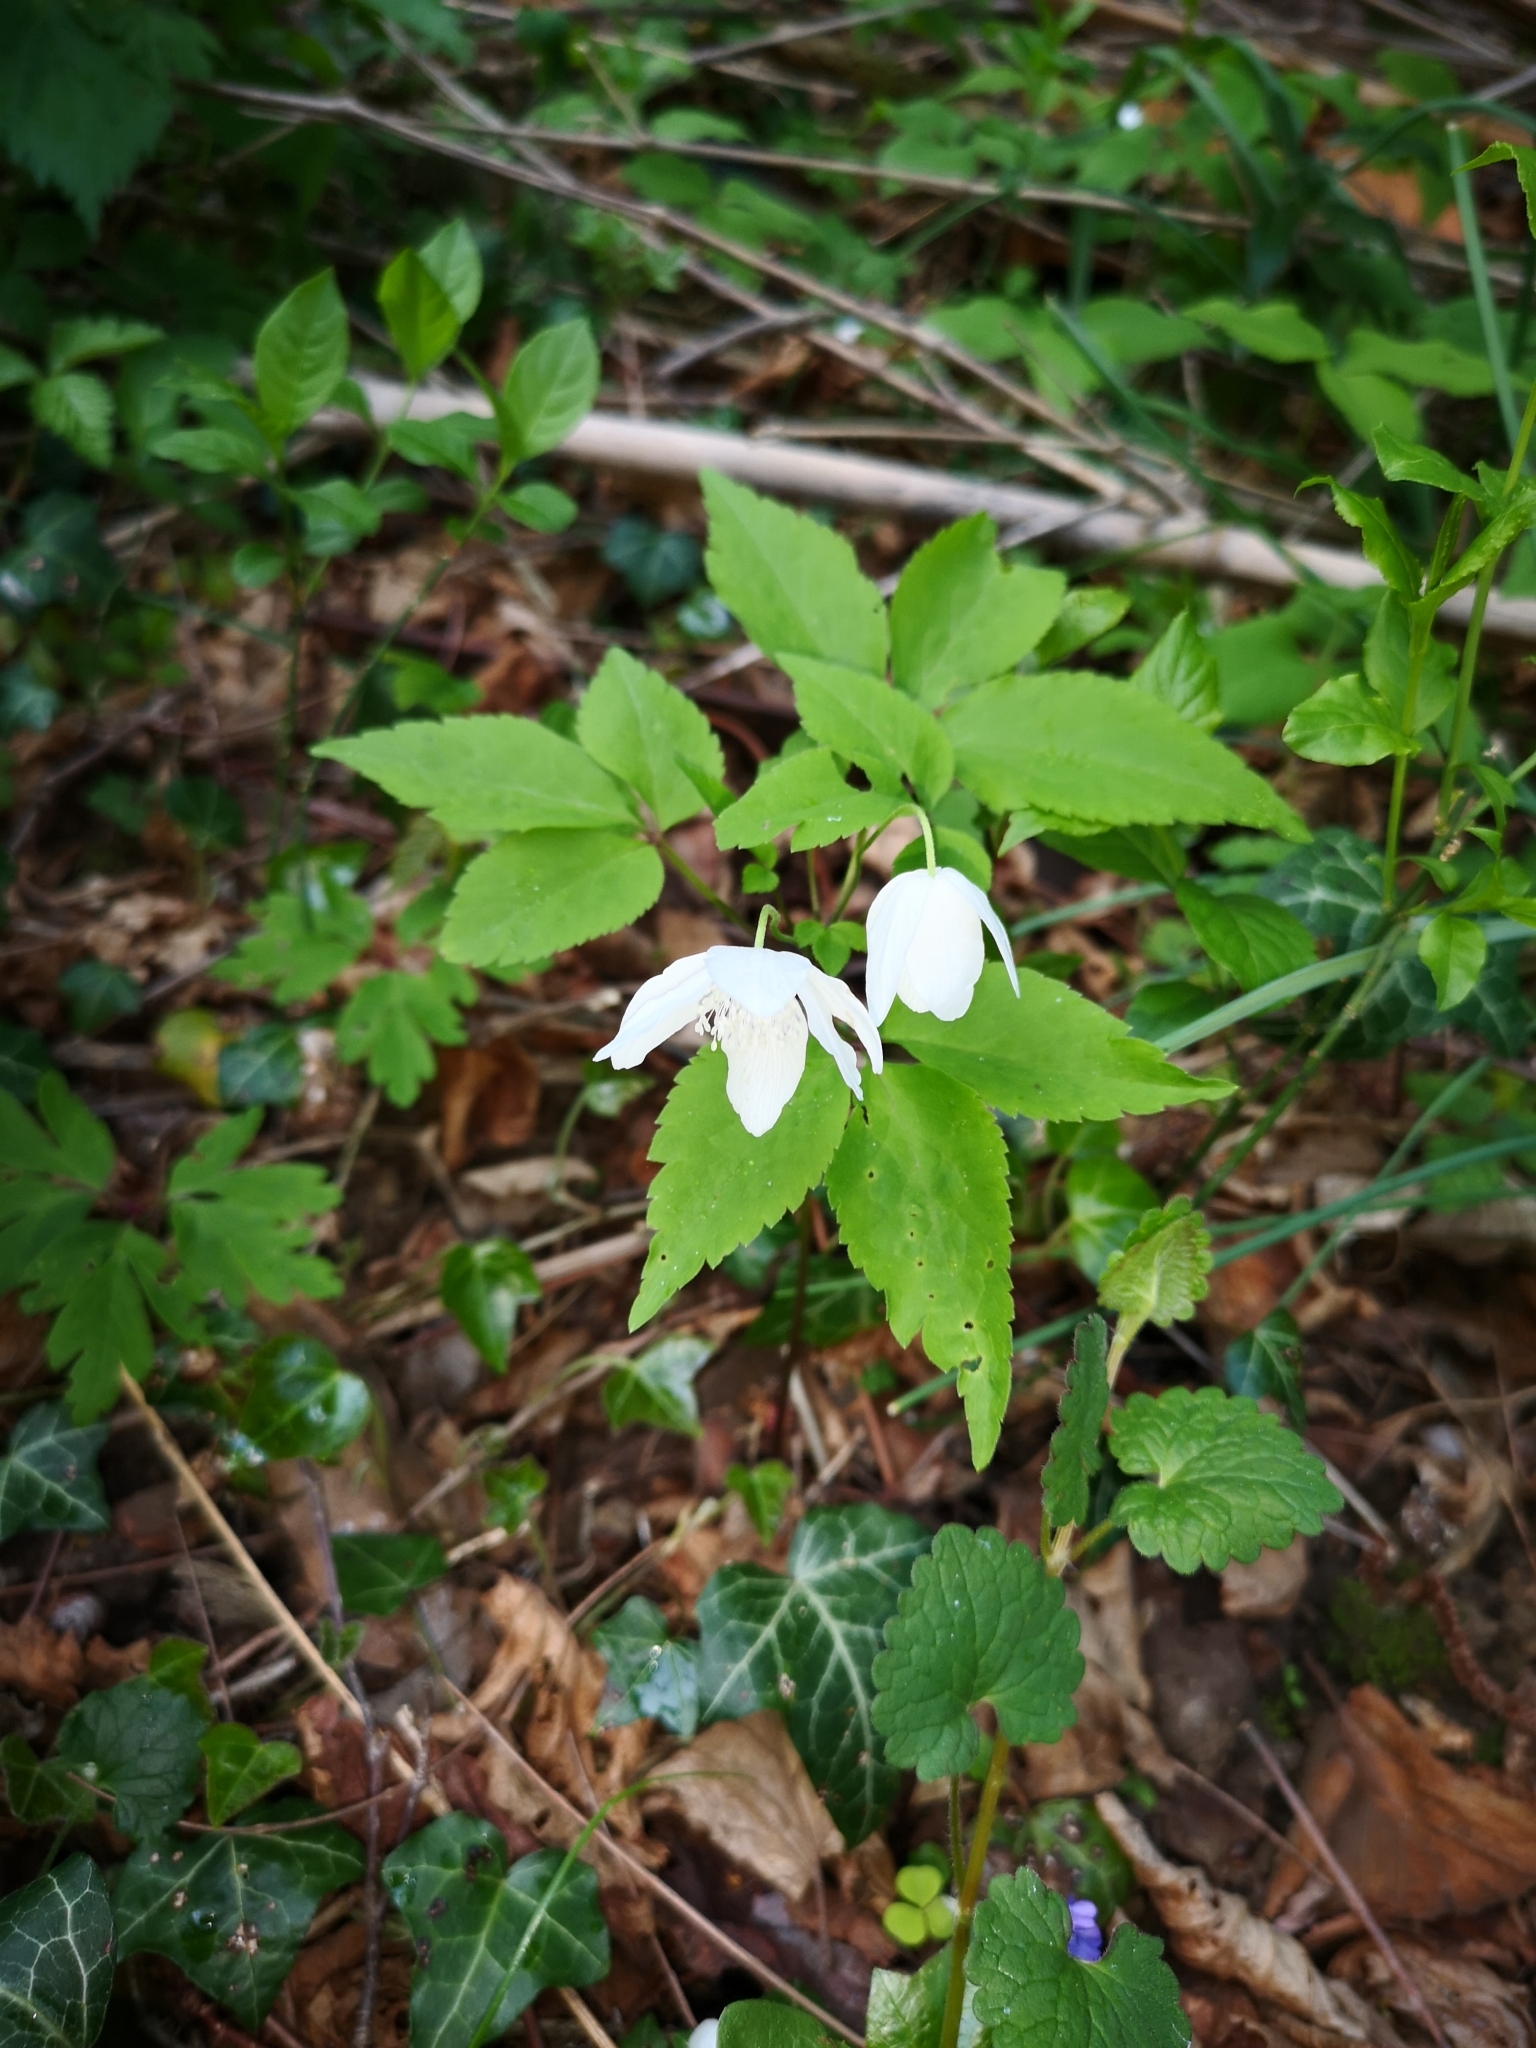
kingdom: Plantae
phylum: Tracheophyta
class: Magnoliopsida
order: Ranunculales
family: Ranunculaceae
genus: Anemone
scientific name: Anemone trifolia
